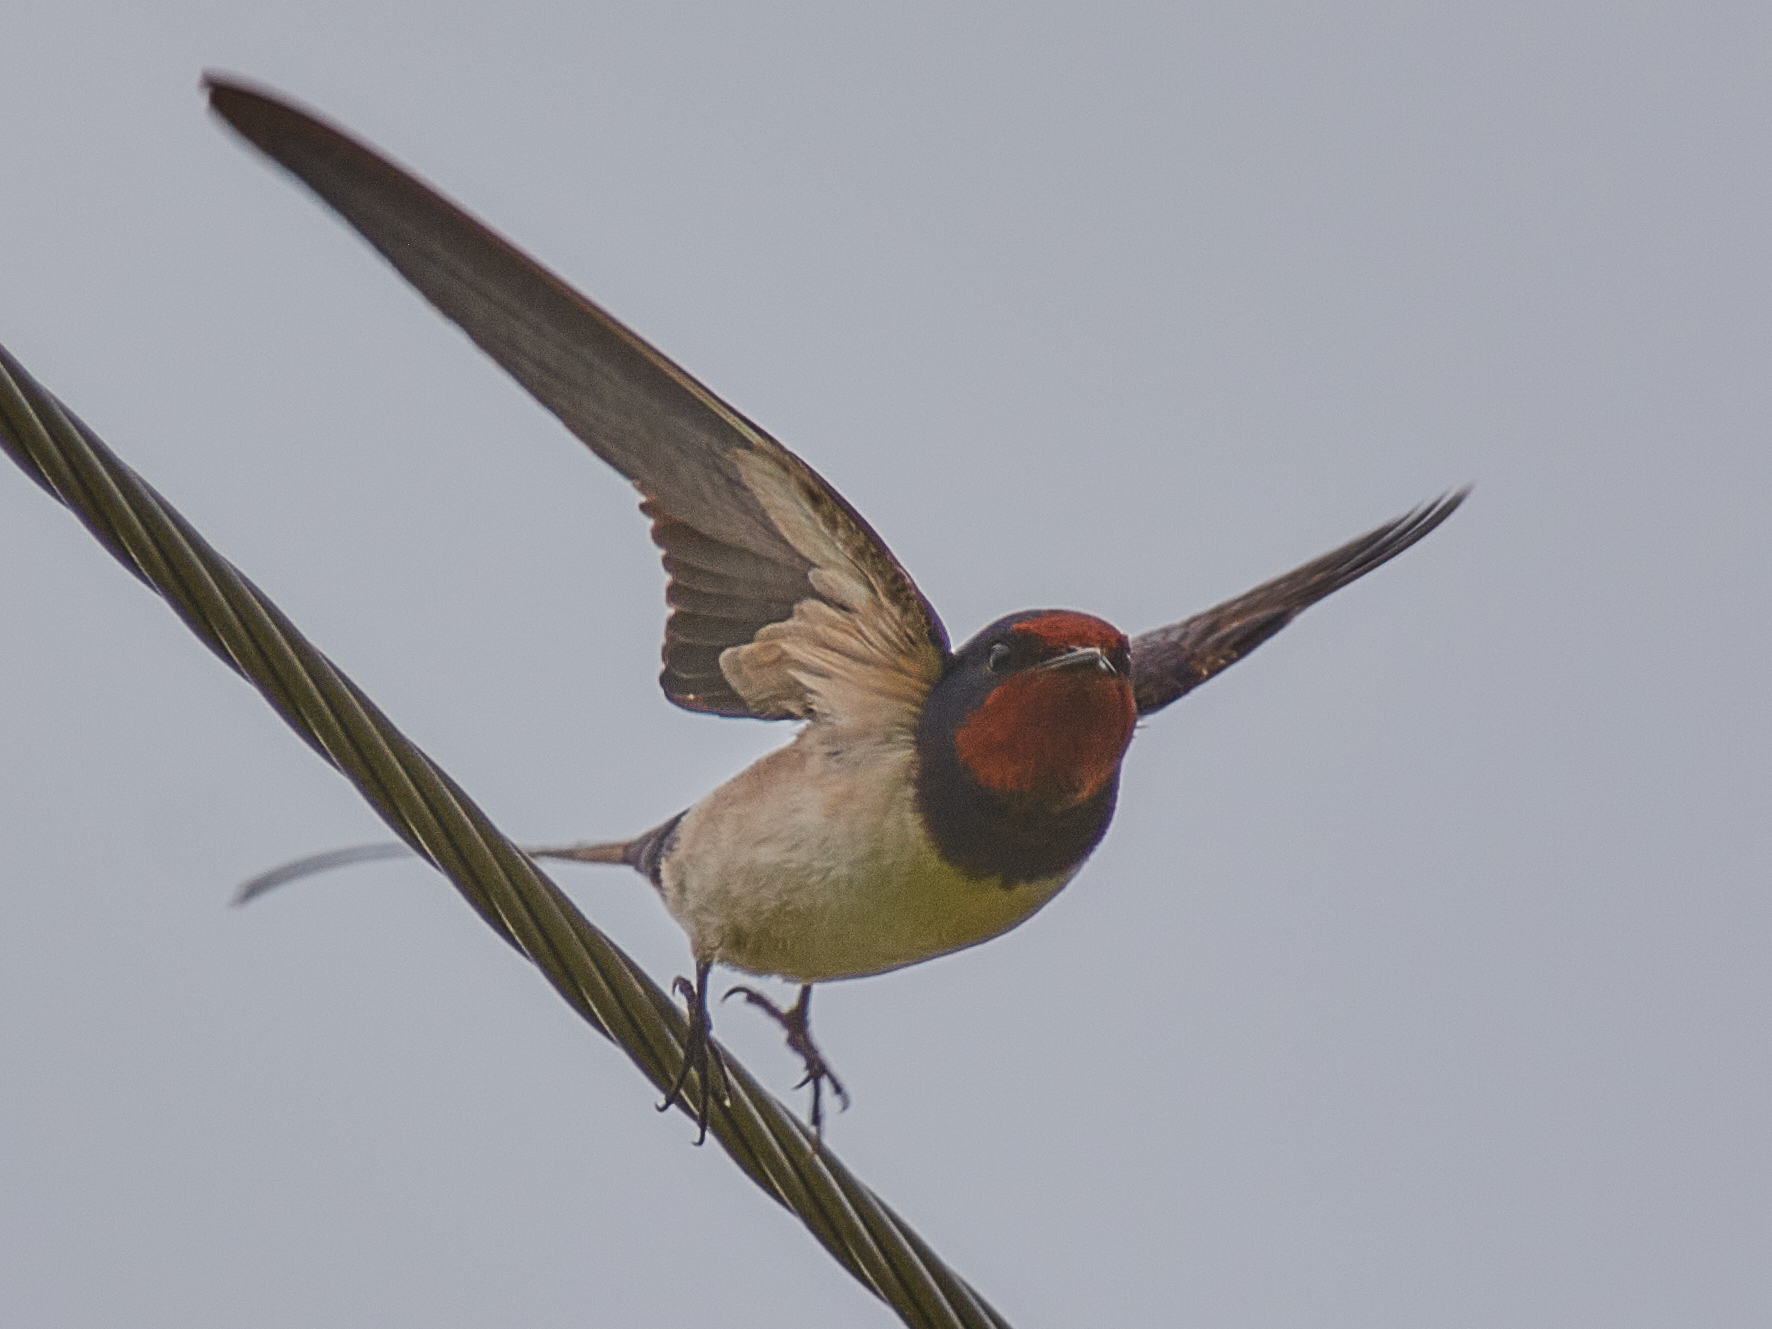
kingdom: Animalia
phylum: Chordata
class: Aves
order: Passeriformes
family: Hirundinidae
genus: Hirundo
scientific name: Hirundo rustica
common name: Barn swallow
